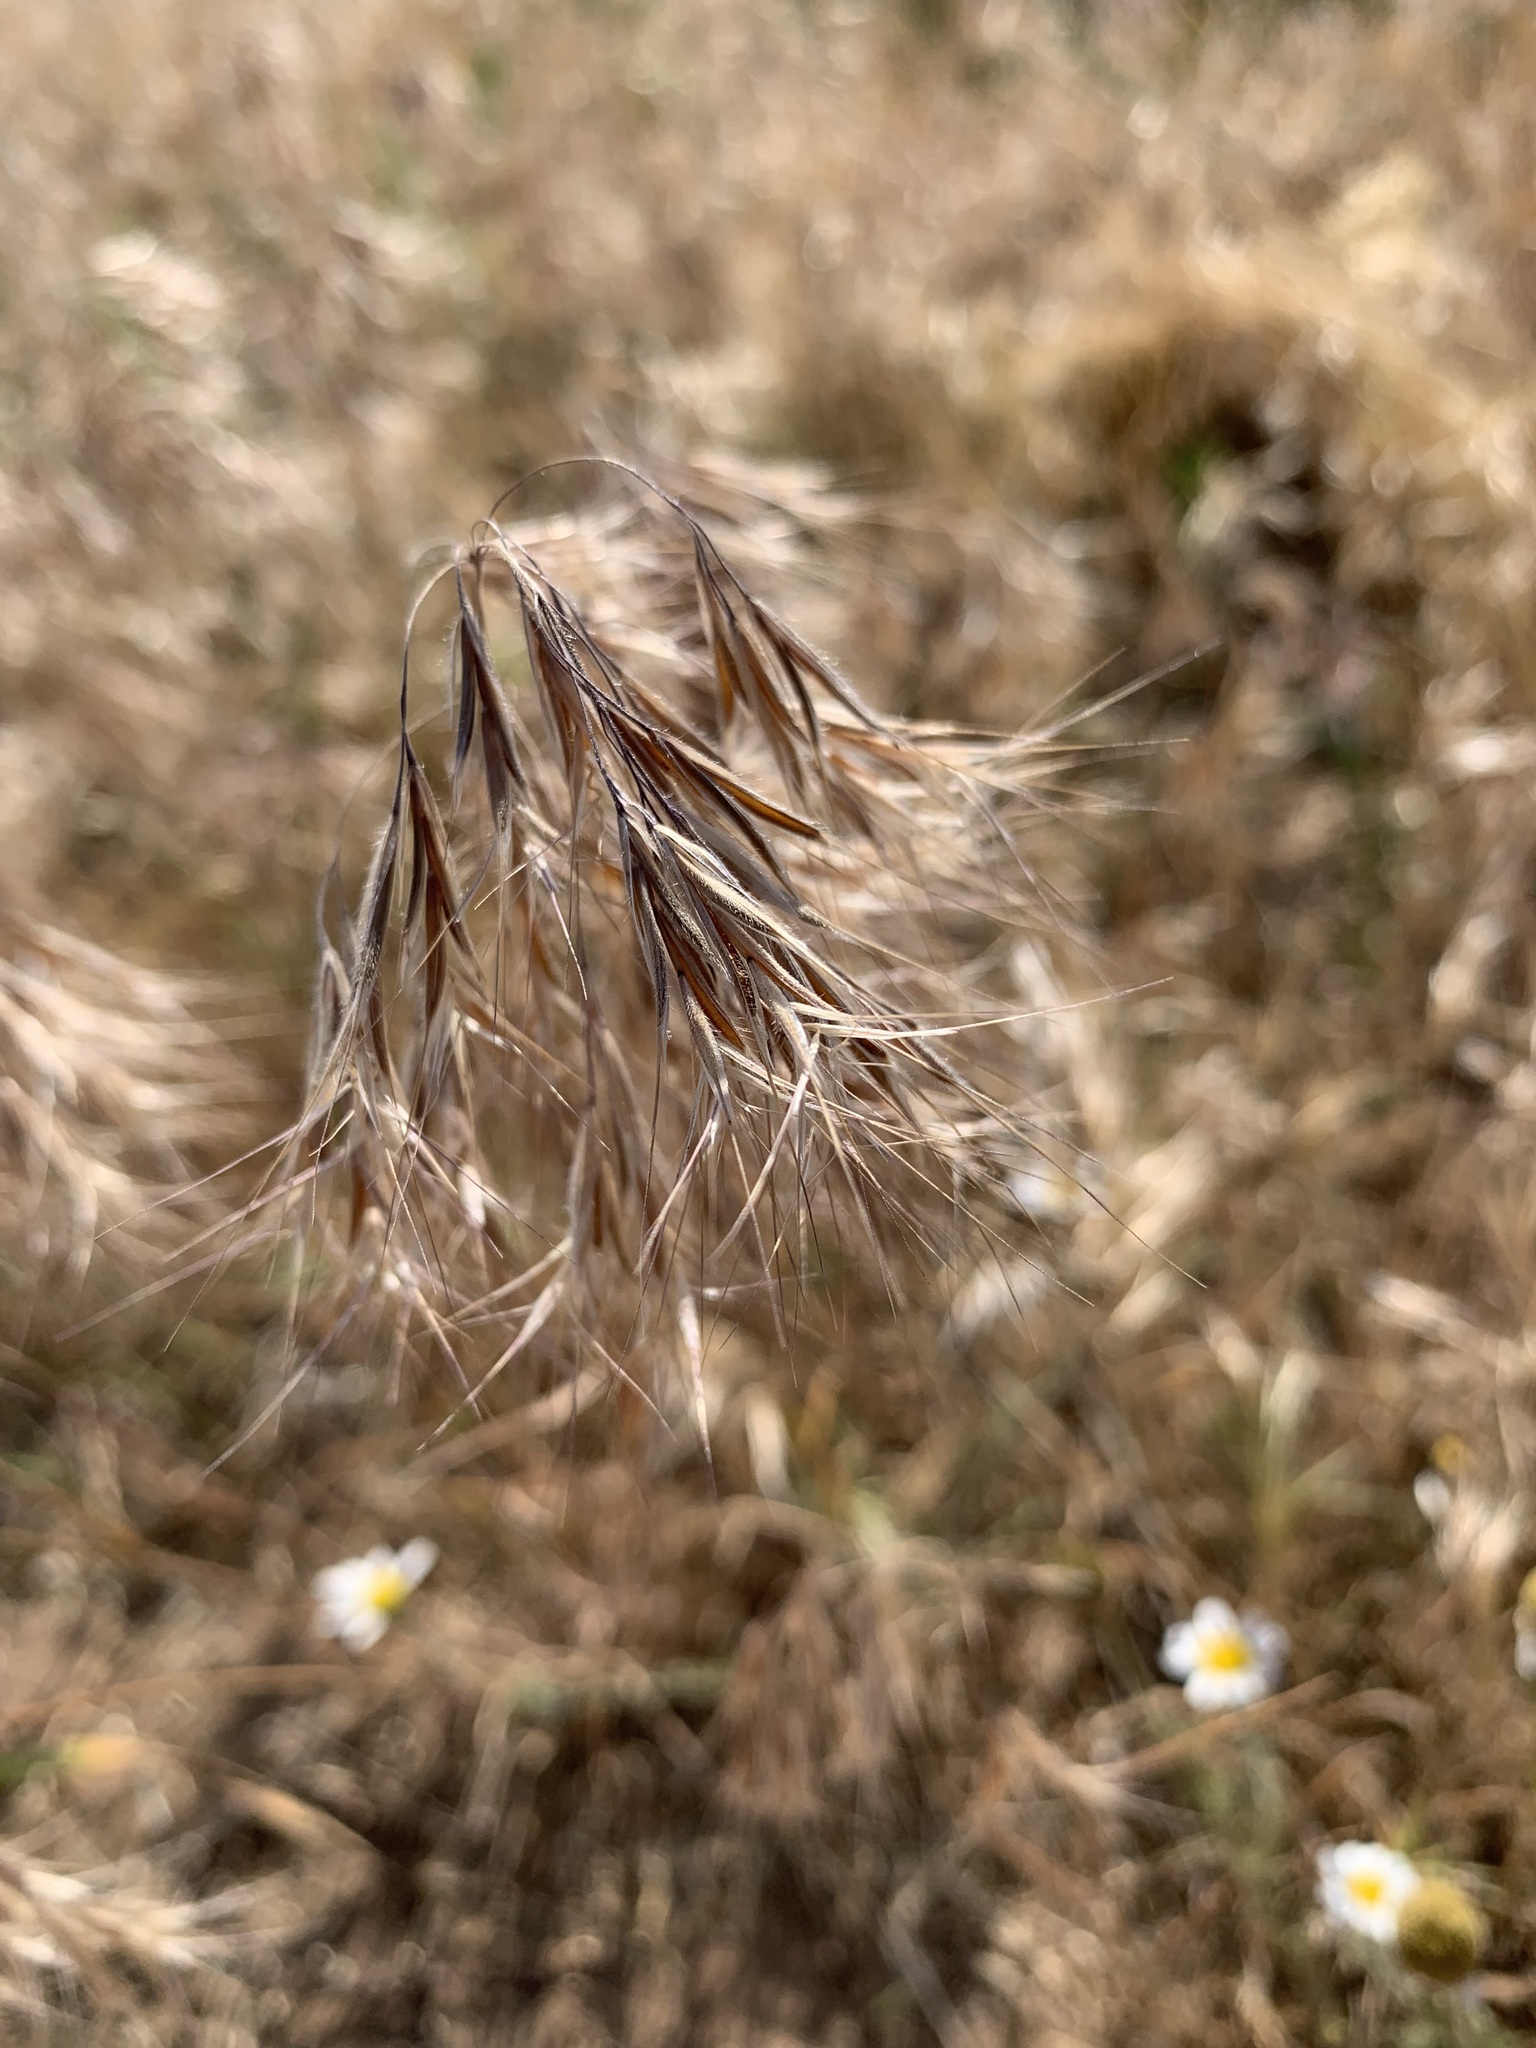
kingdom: Plantae
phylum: Tracheophyta
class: Liliopsida
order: Poales
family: Poaceae
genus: Bromus
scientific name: Bromus tectorum
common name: Cheatgrass
